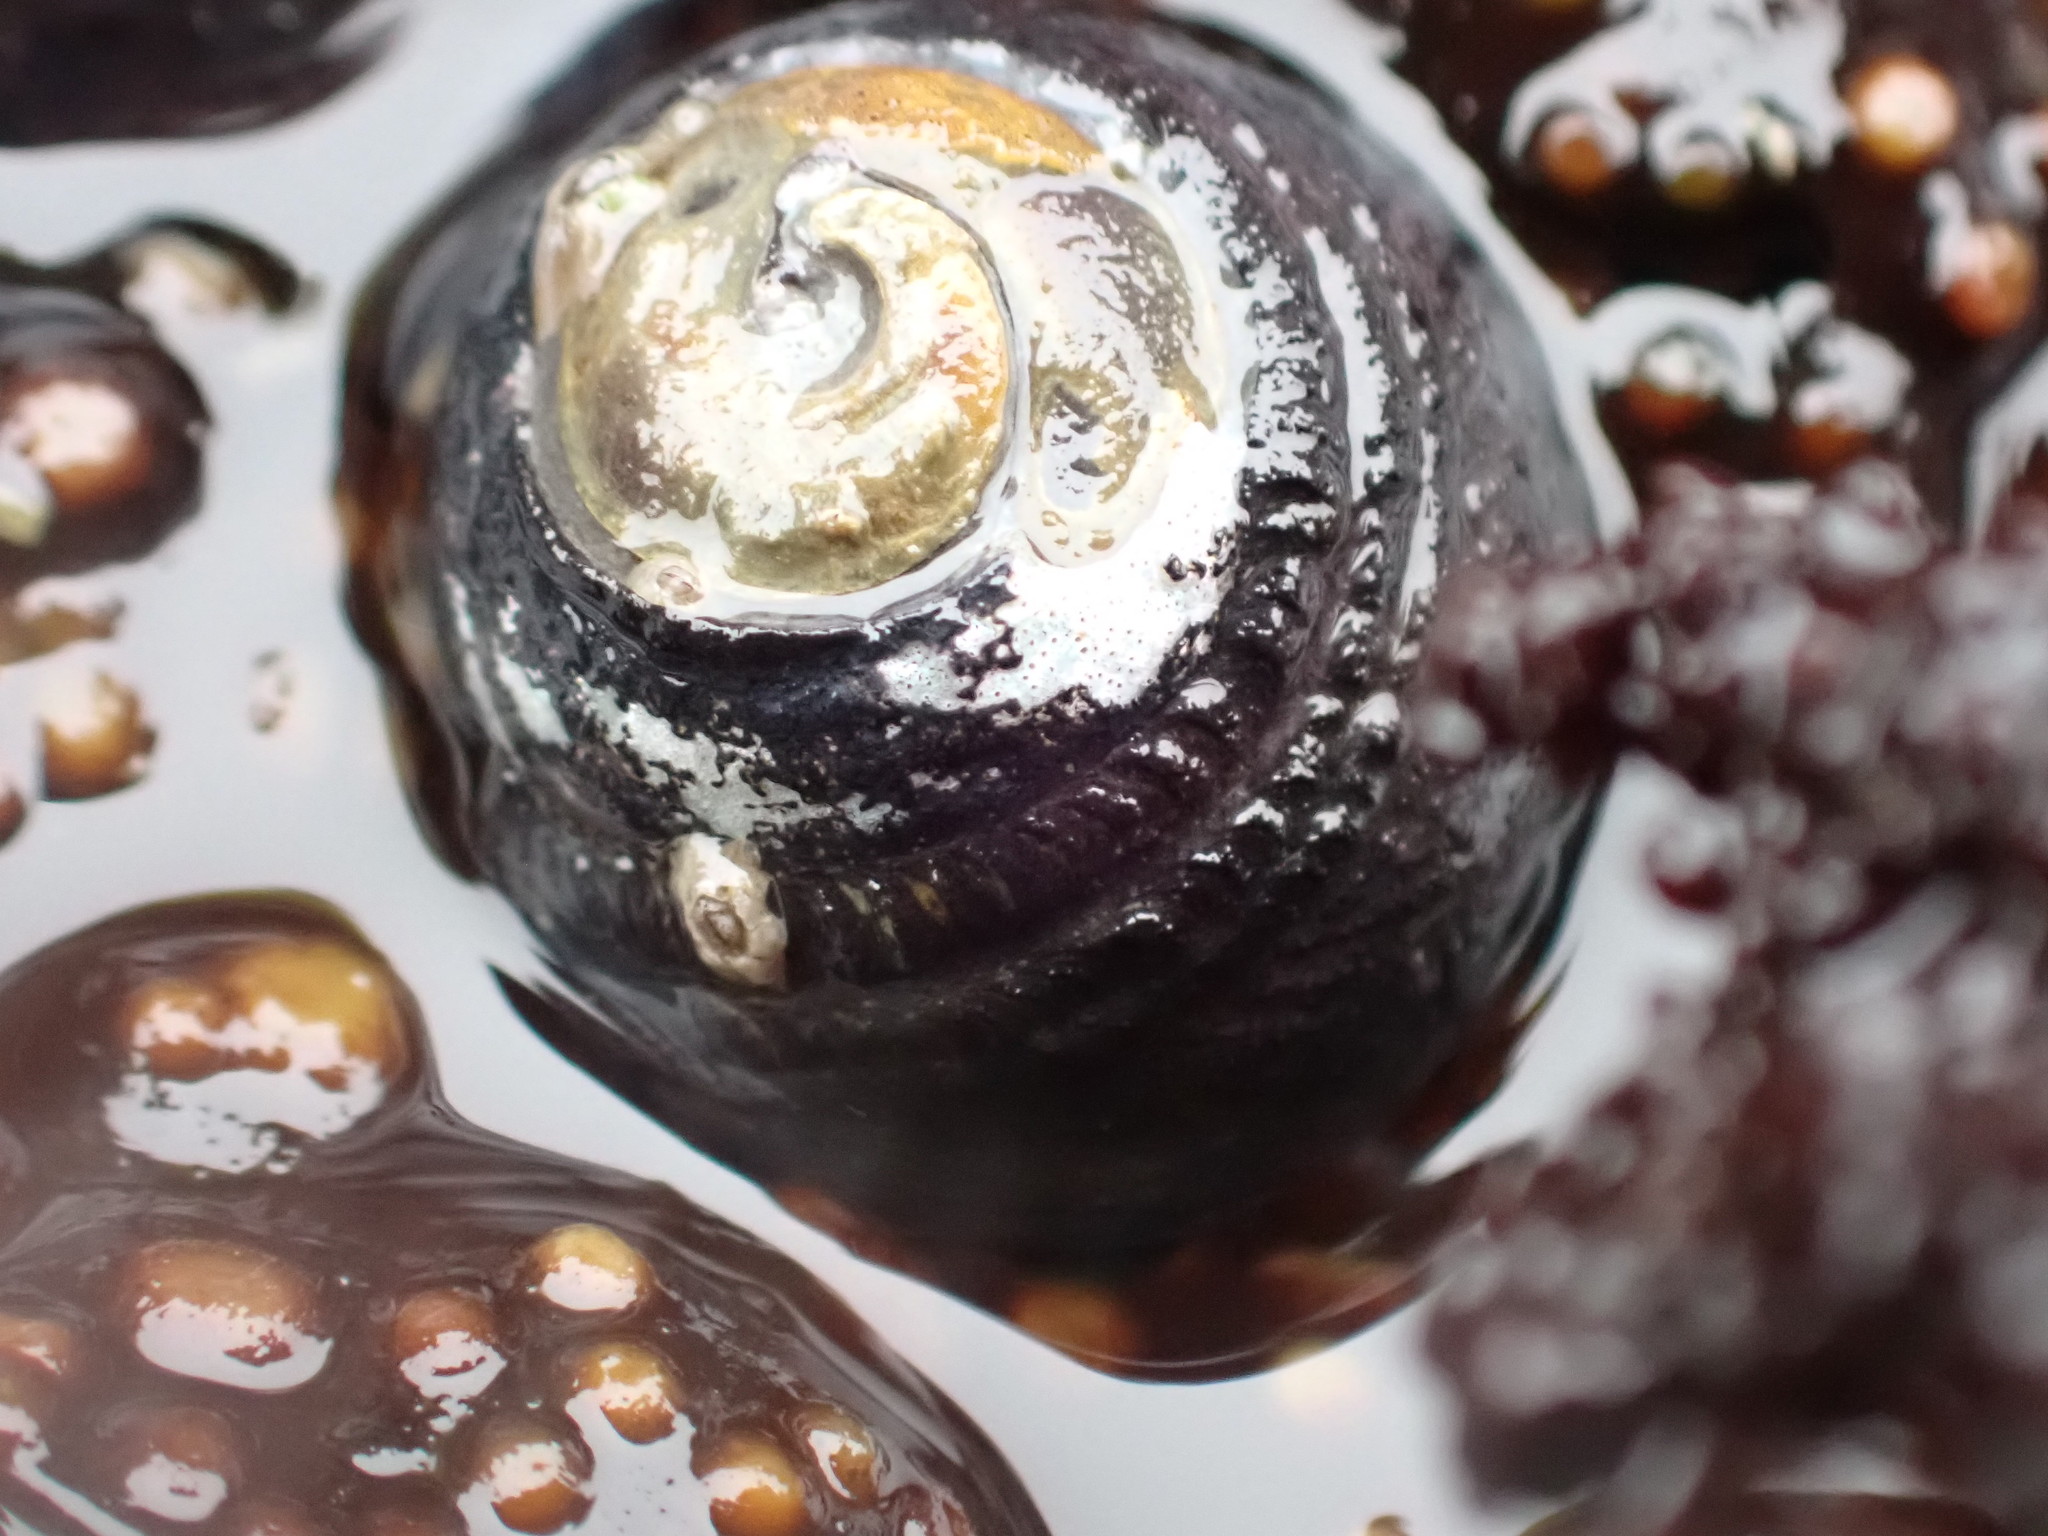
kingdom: Animalia
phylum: Mollusca
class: Gastropoda
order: Trochida
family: Tegulidae
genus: Tegula
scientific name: Tegula funebralis
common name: Black tegula
